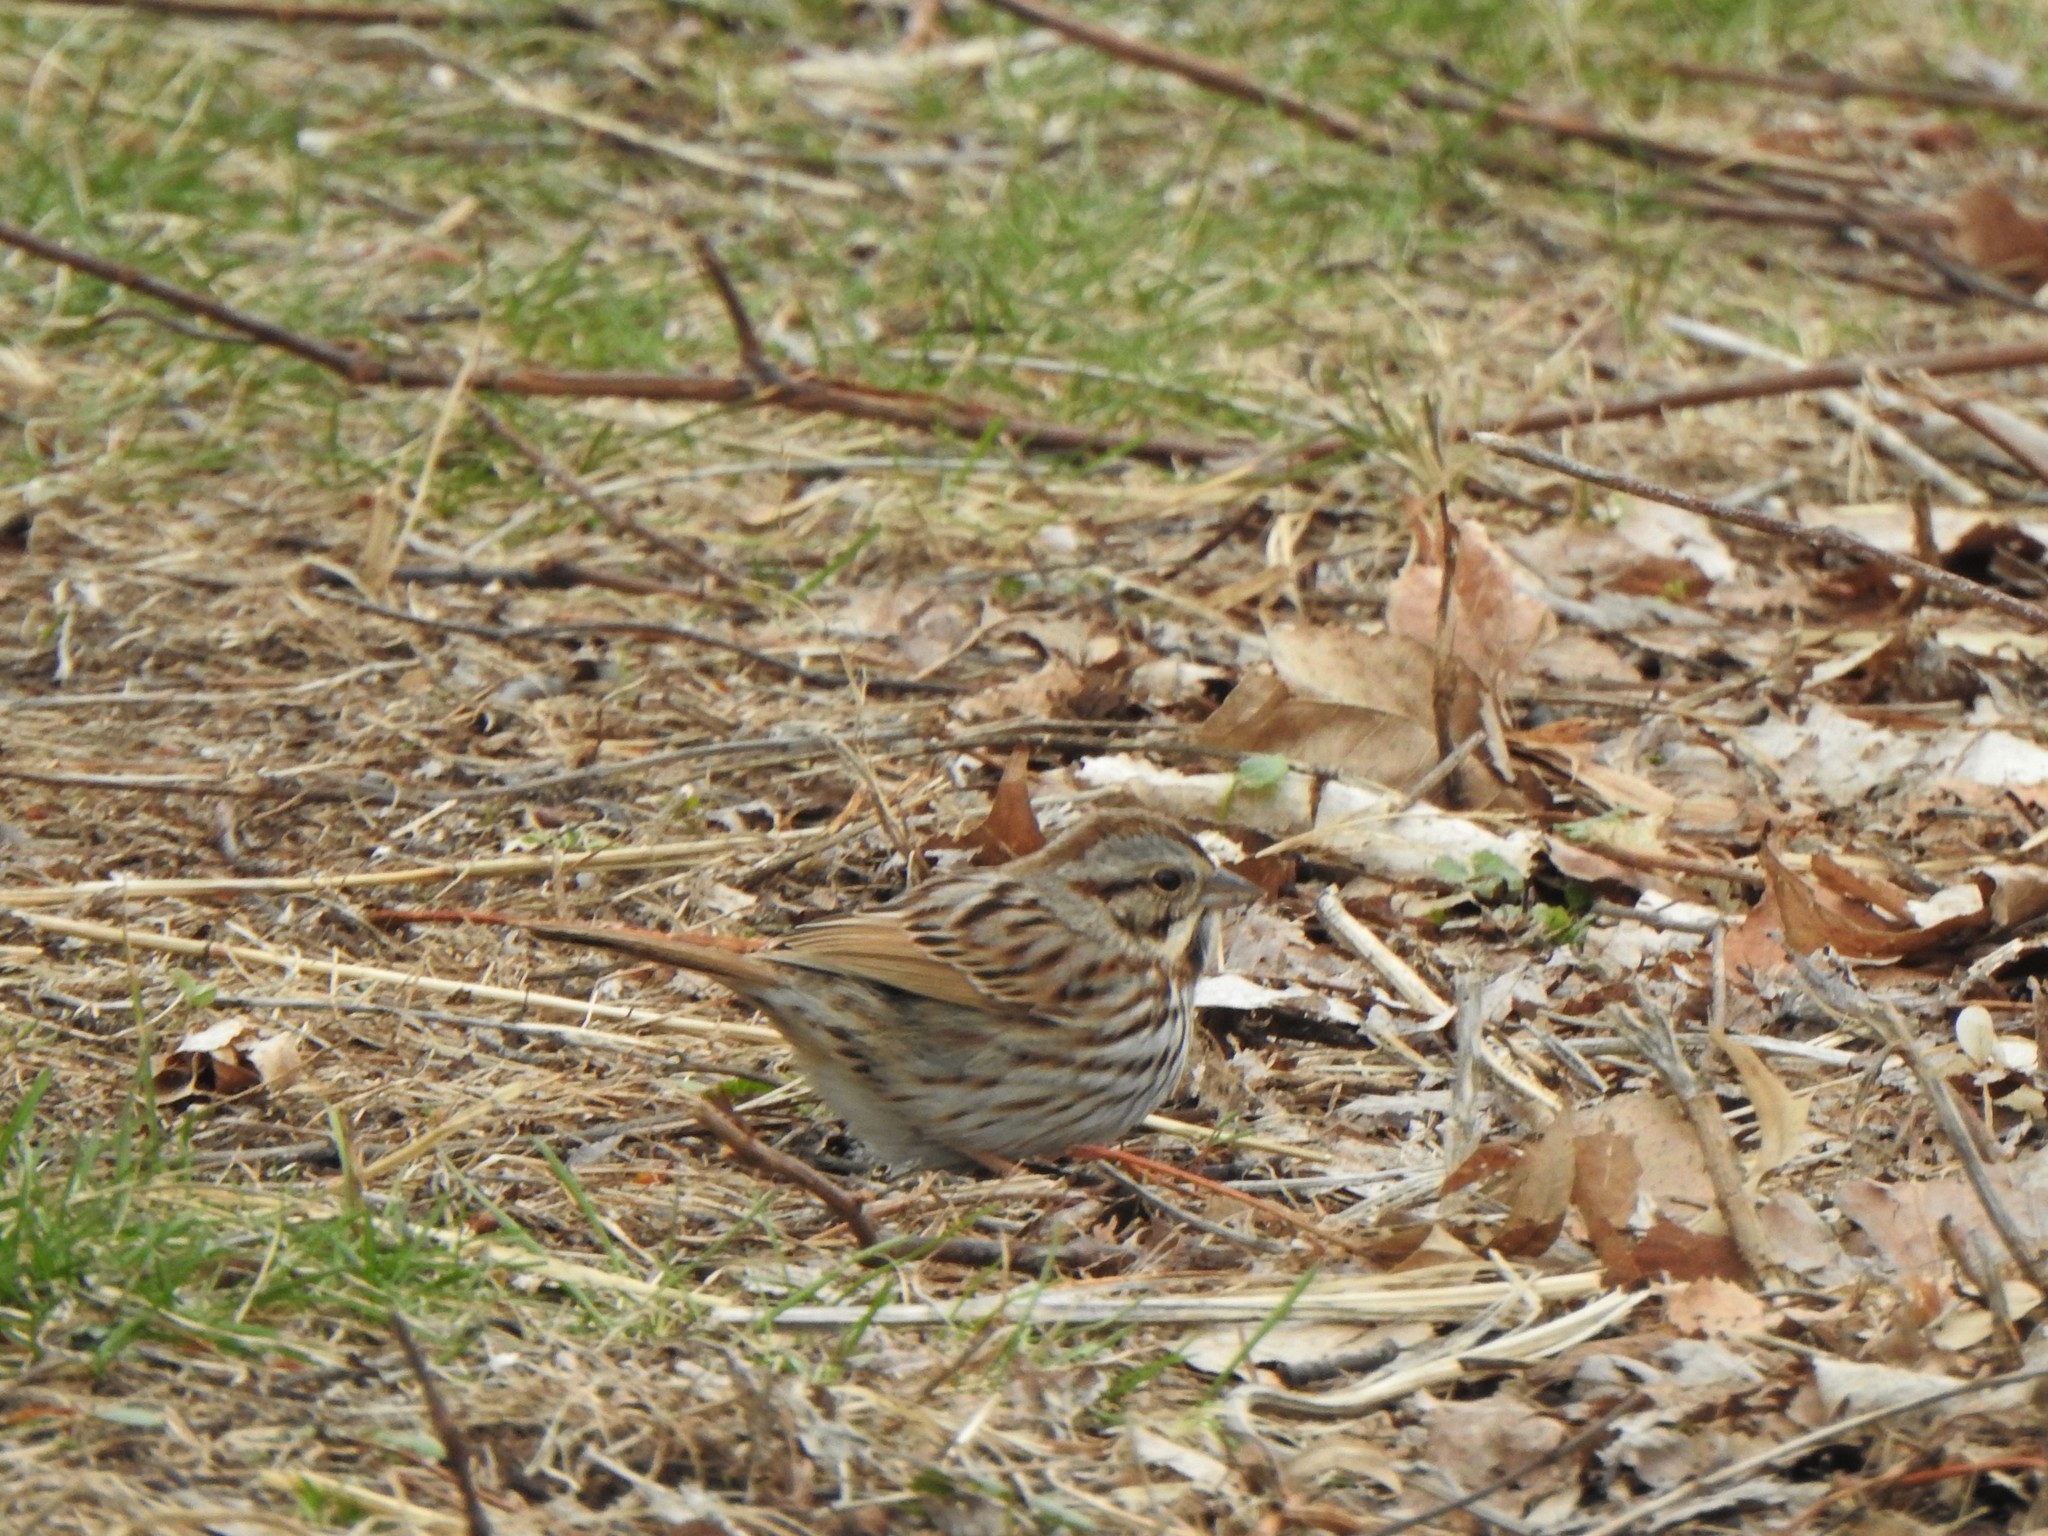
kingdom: Animalia
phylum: Chordata
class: Aves
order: Passeriformes
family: Passerellidae
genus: Melospiza
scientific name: Melospiza melodia
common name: Song sparrow
